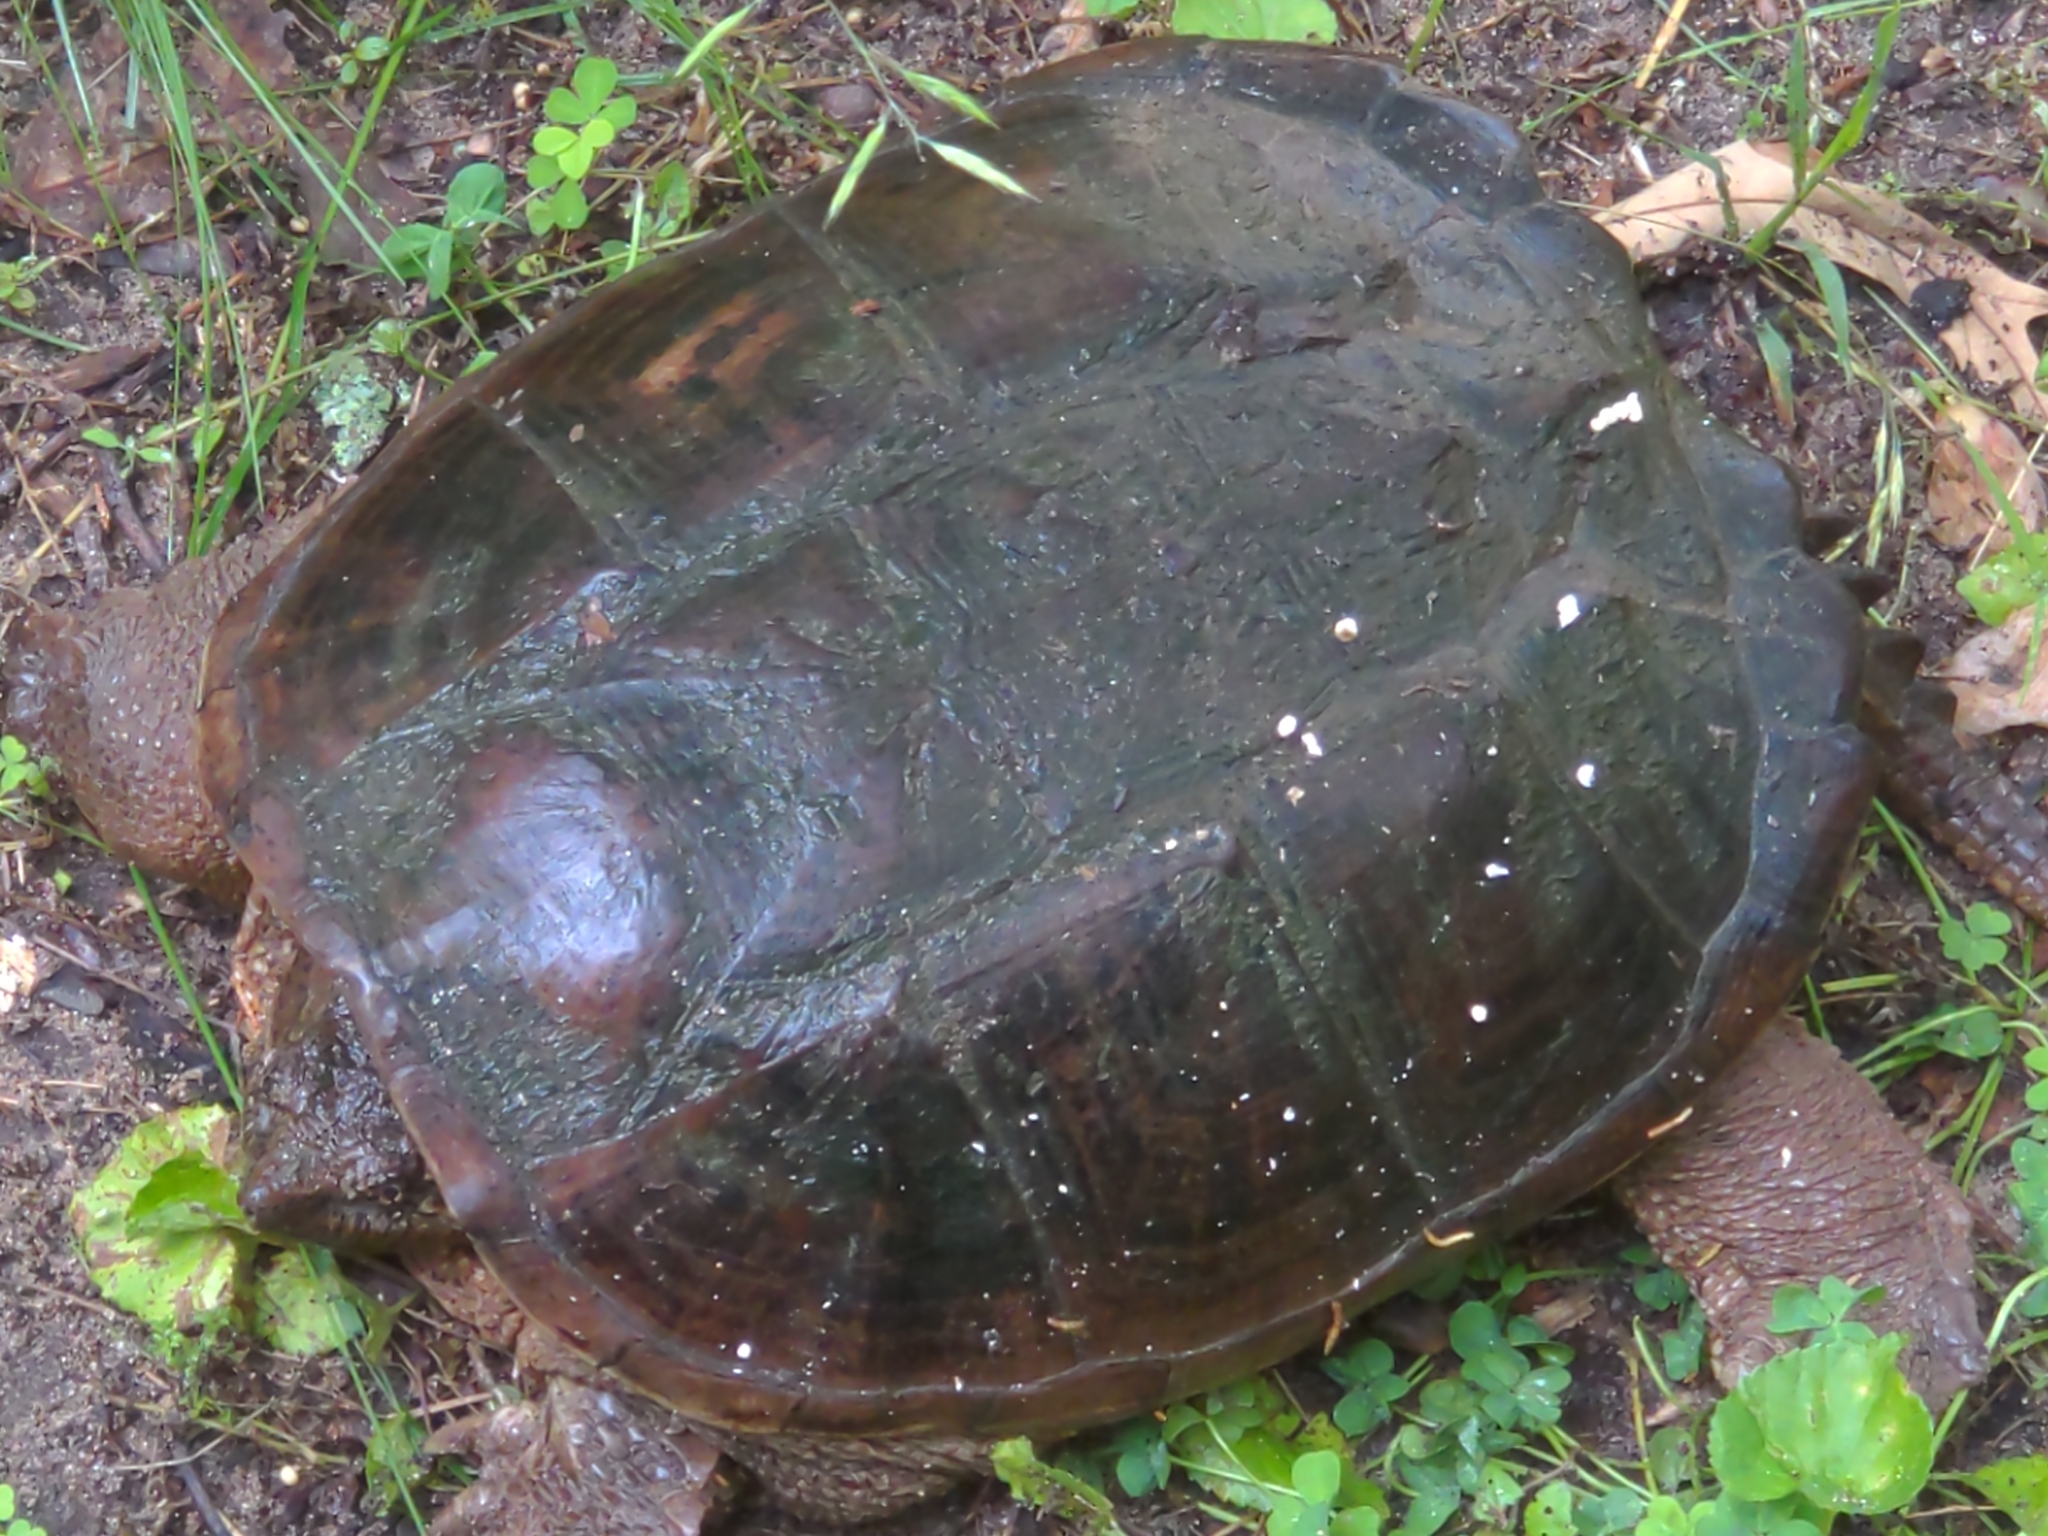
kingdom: Animalia
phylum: Chordata
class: Testudines
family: Chelydridae
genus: Chelydra
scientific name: Chelydra serpentina
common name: Common snapping turtle
